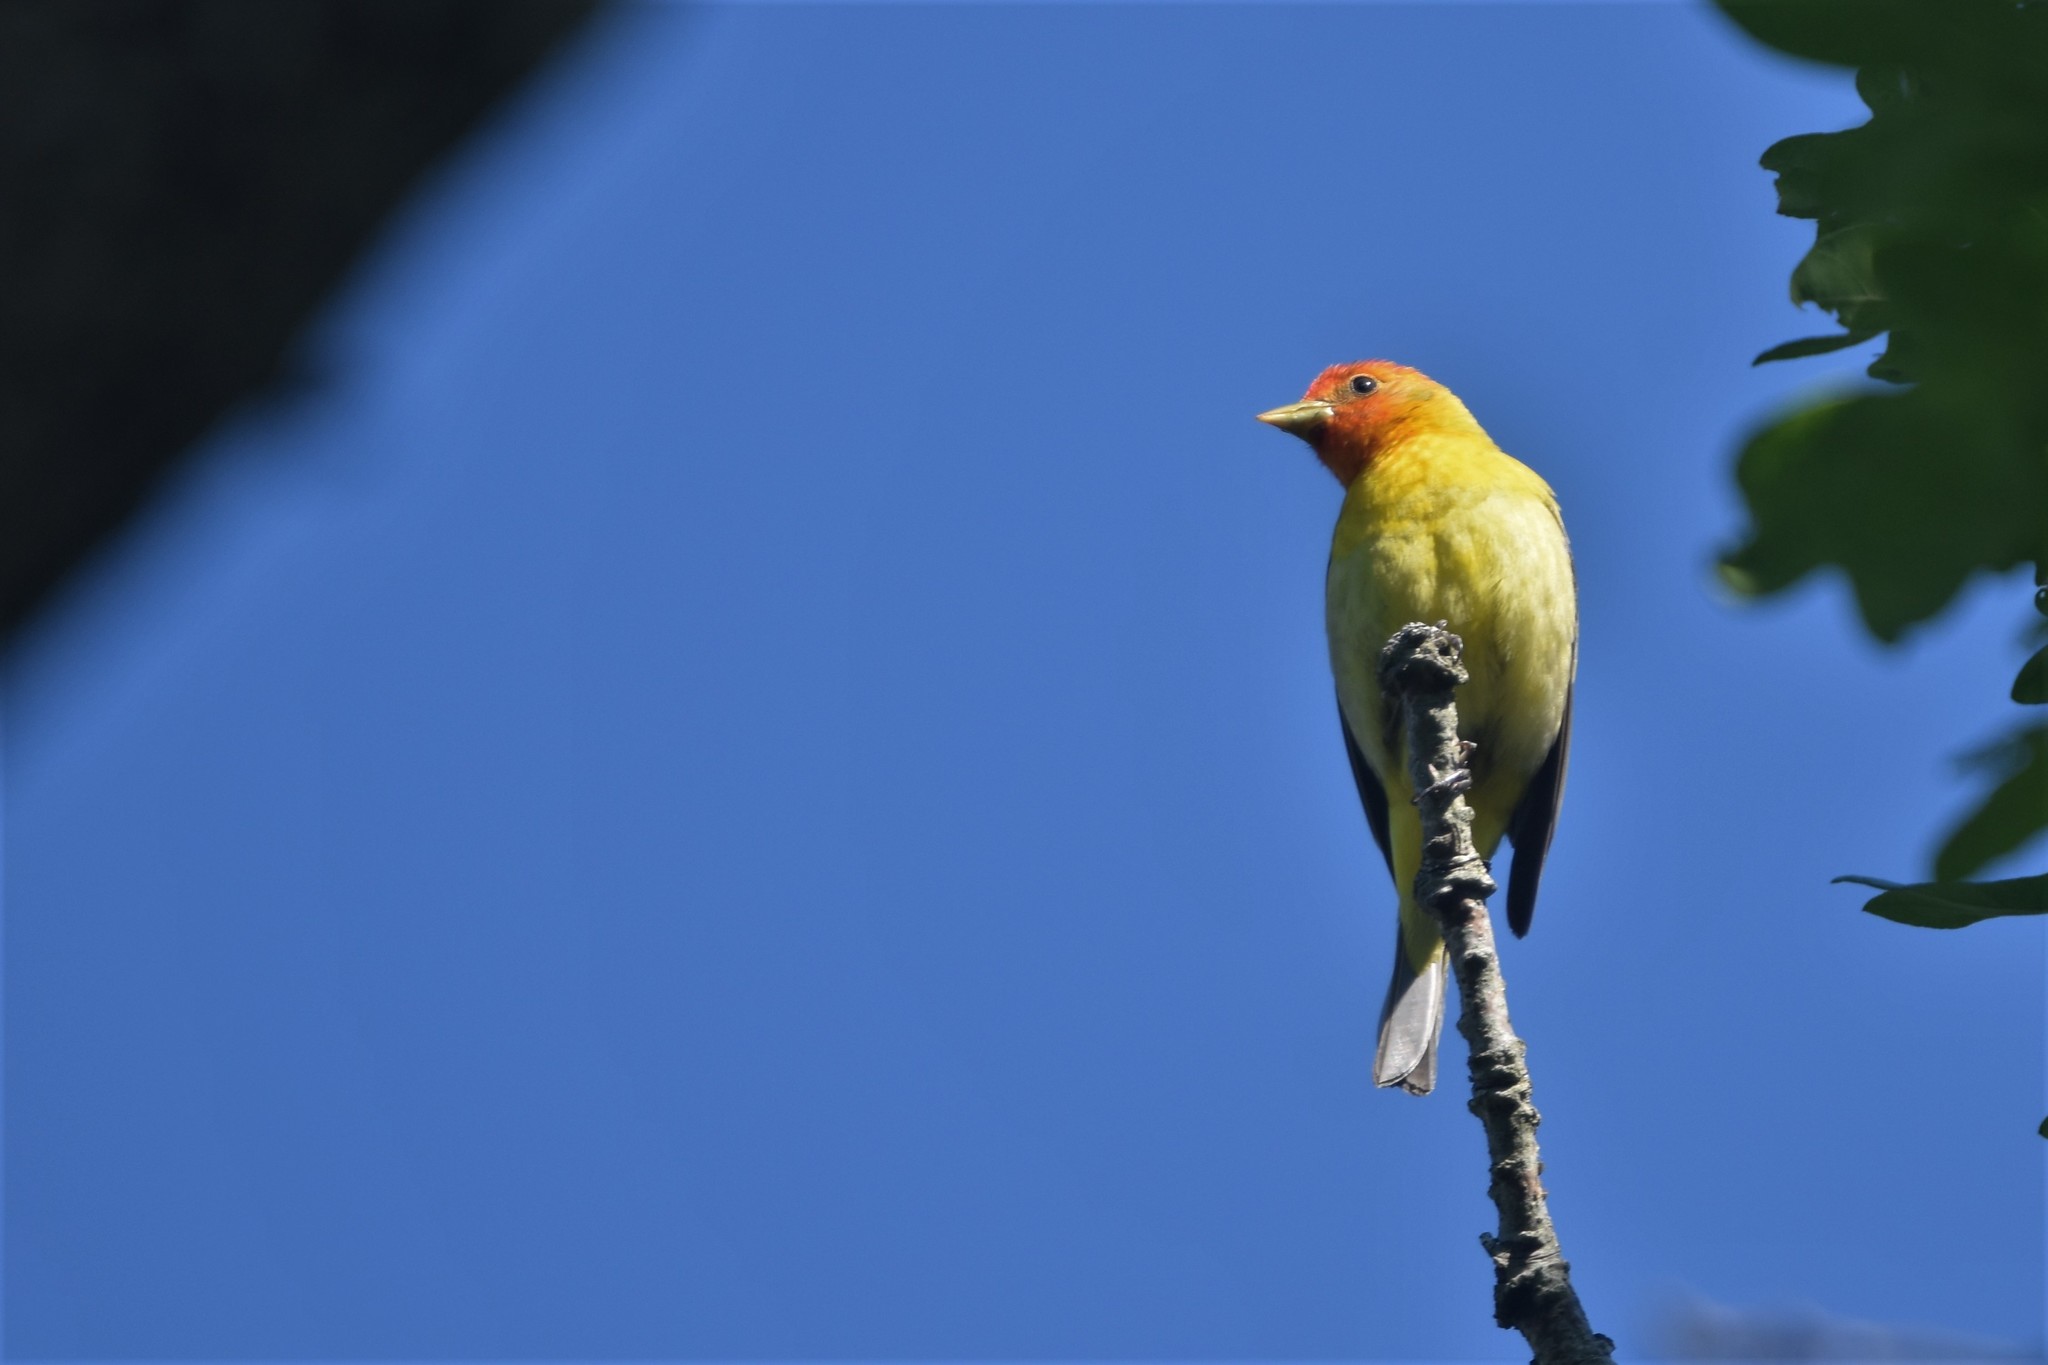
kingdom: Animalia
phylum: Chordata
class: Aves
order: Passeriformes
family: Cardinalidae
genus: Piranga
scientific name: Piranga ludoviciana
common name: Western tanager
